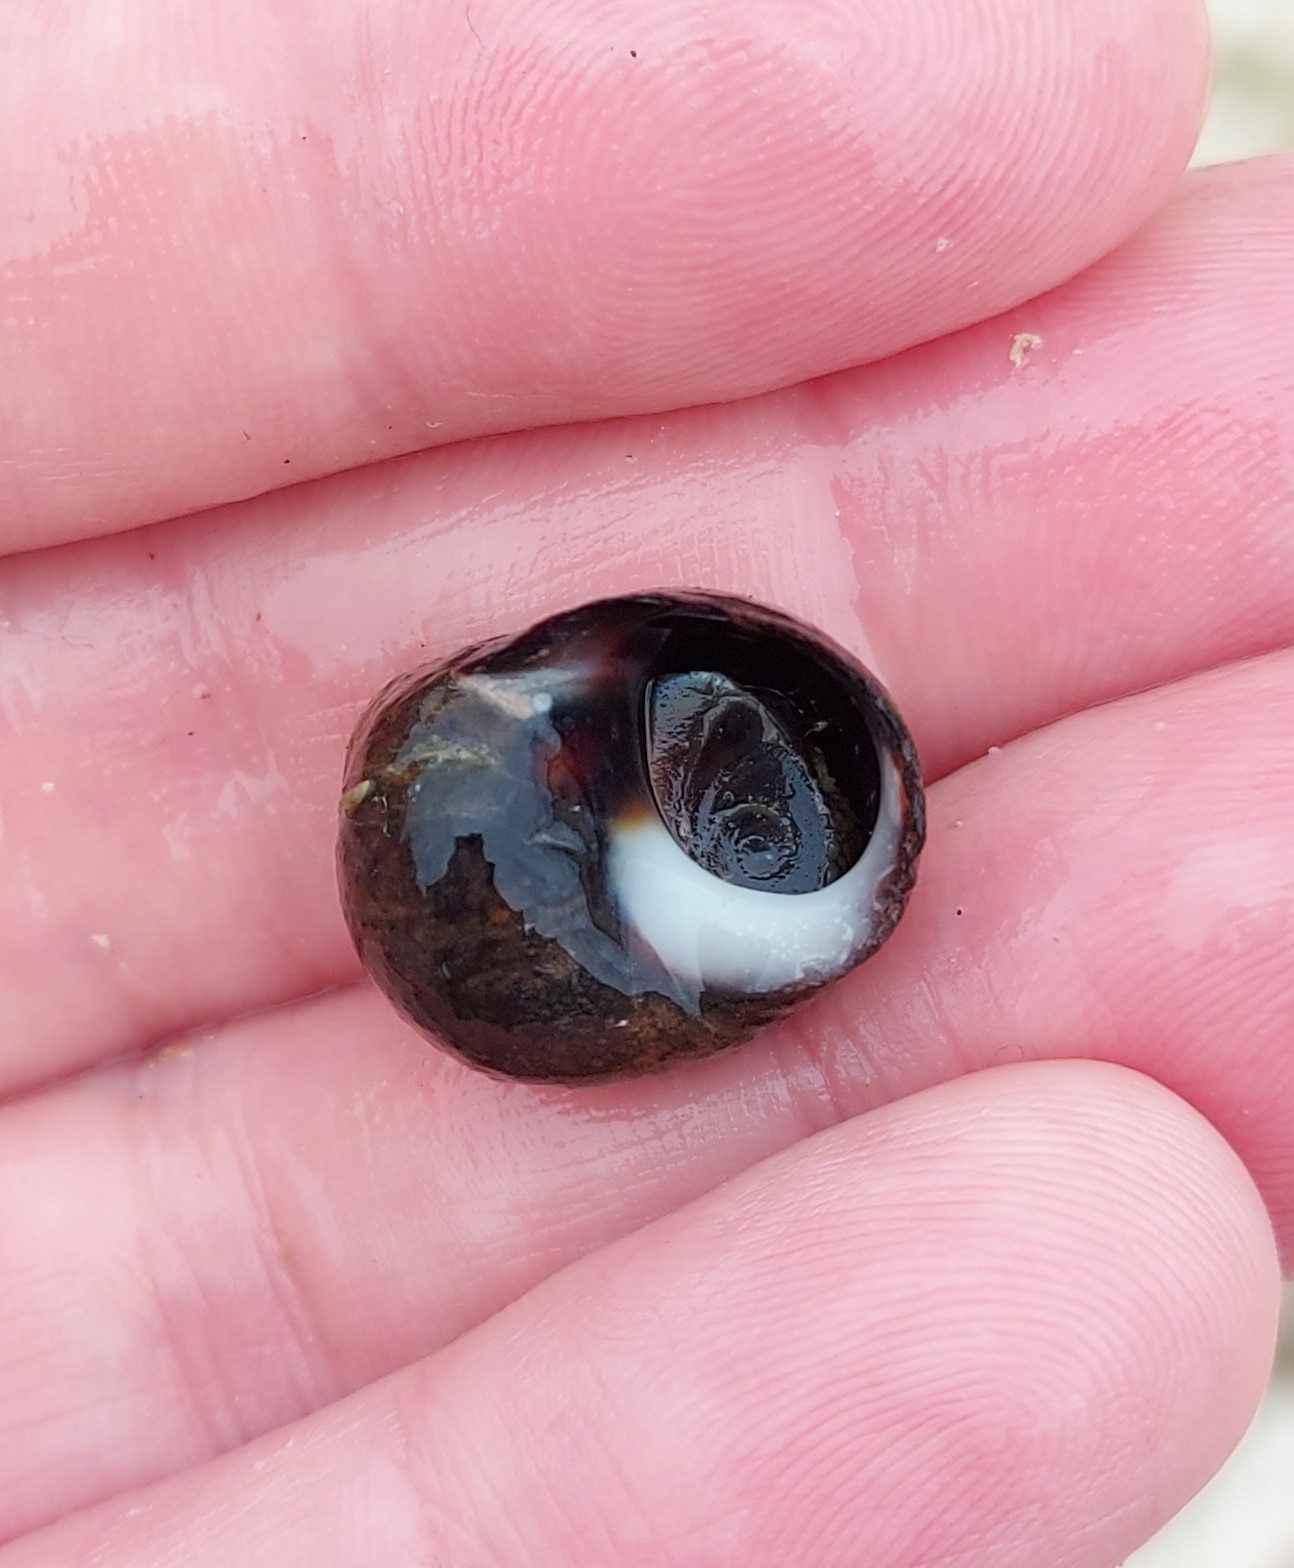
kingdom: Animalia
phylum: Mollusca
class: Gastropoda
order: Littorinimorpha
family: Littorinidae
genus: Littorina
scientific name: Littorina littorea
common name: Common periwinkle
